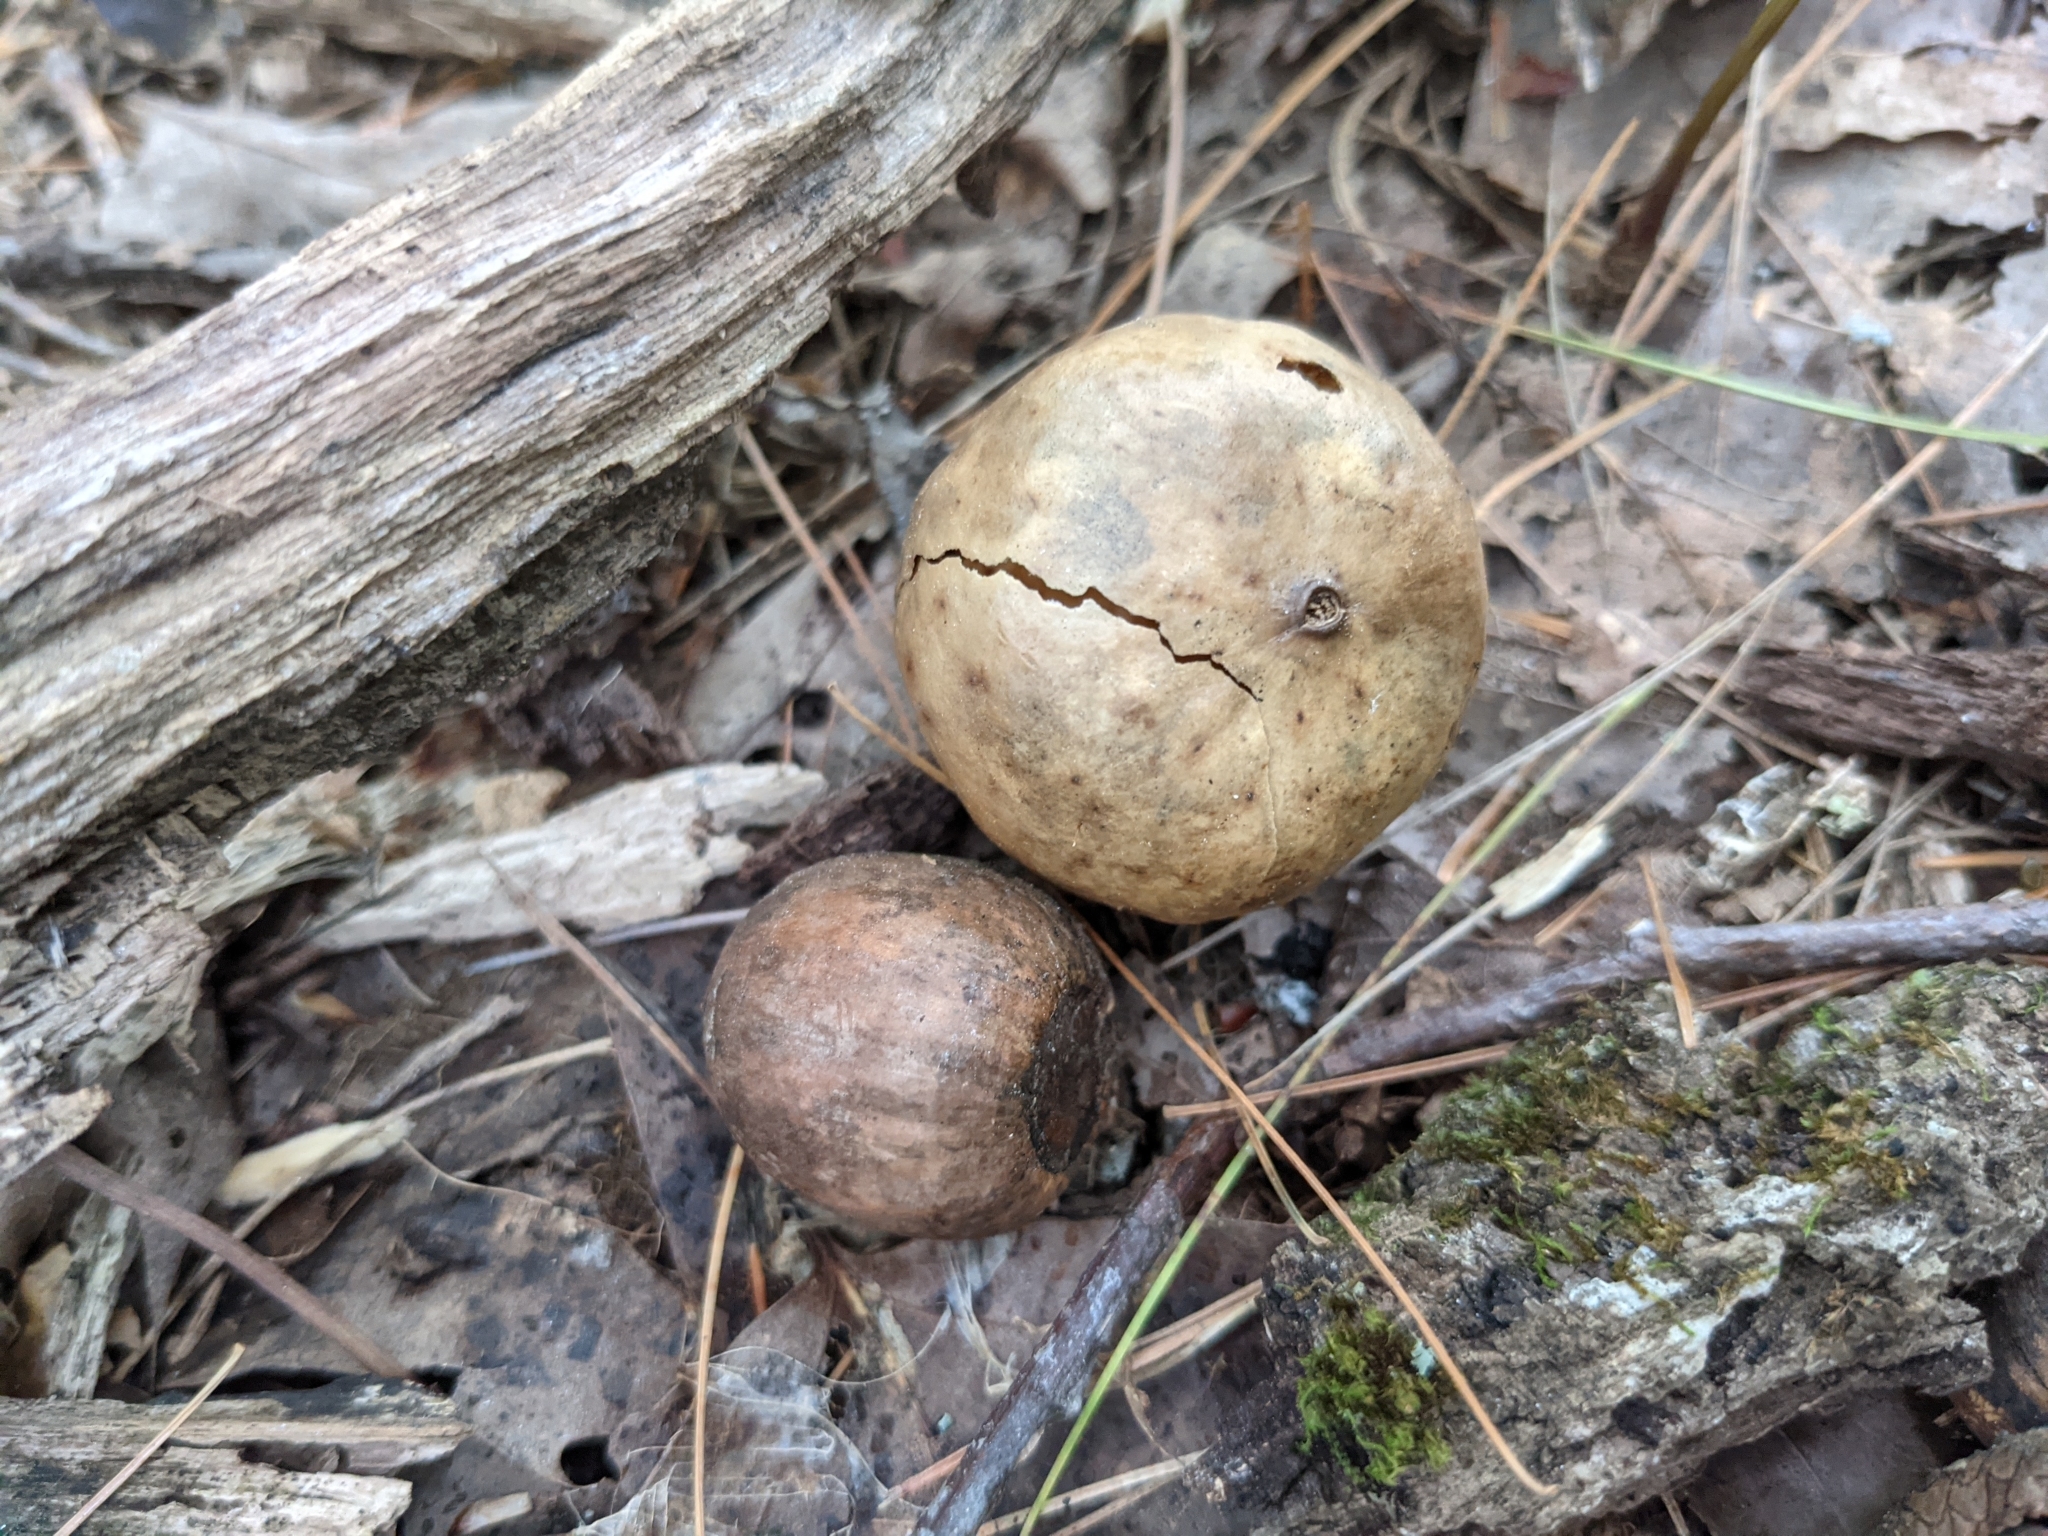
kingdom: Animalia
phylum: Arthropoda
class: Insecta
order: Hymenoptera
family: Cynipidae
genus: Amphibolips
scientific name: Amphibolips
